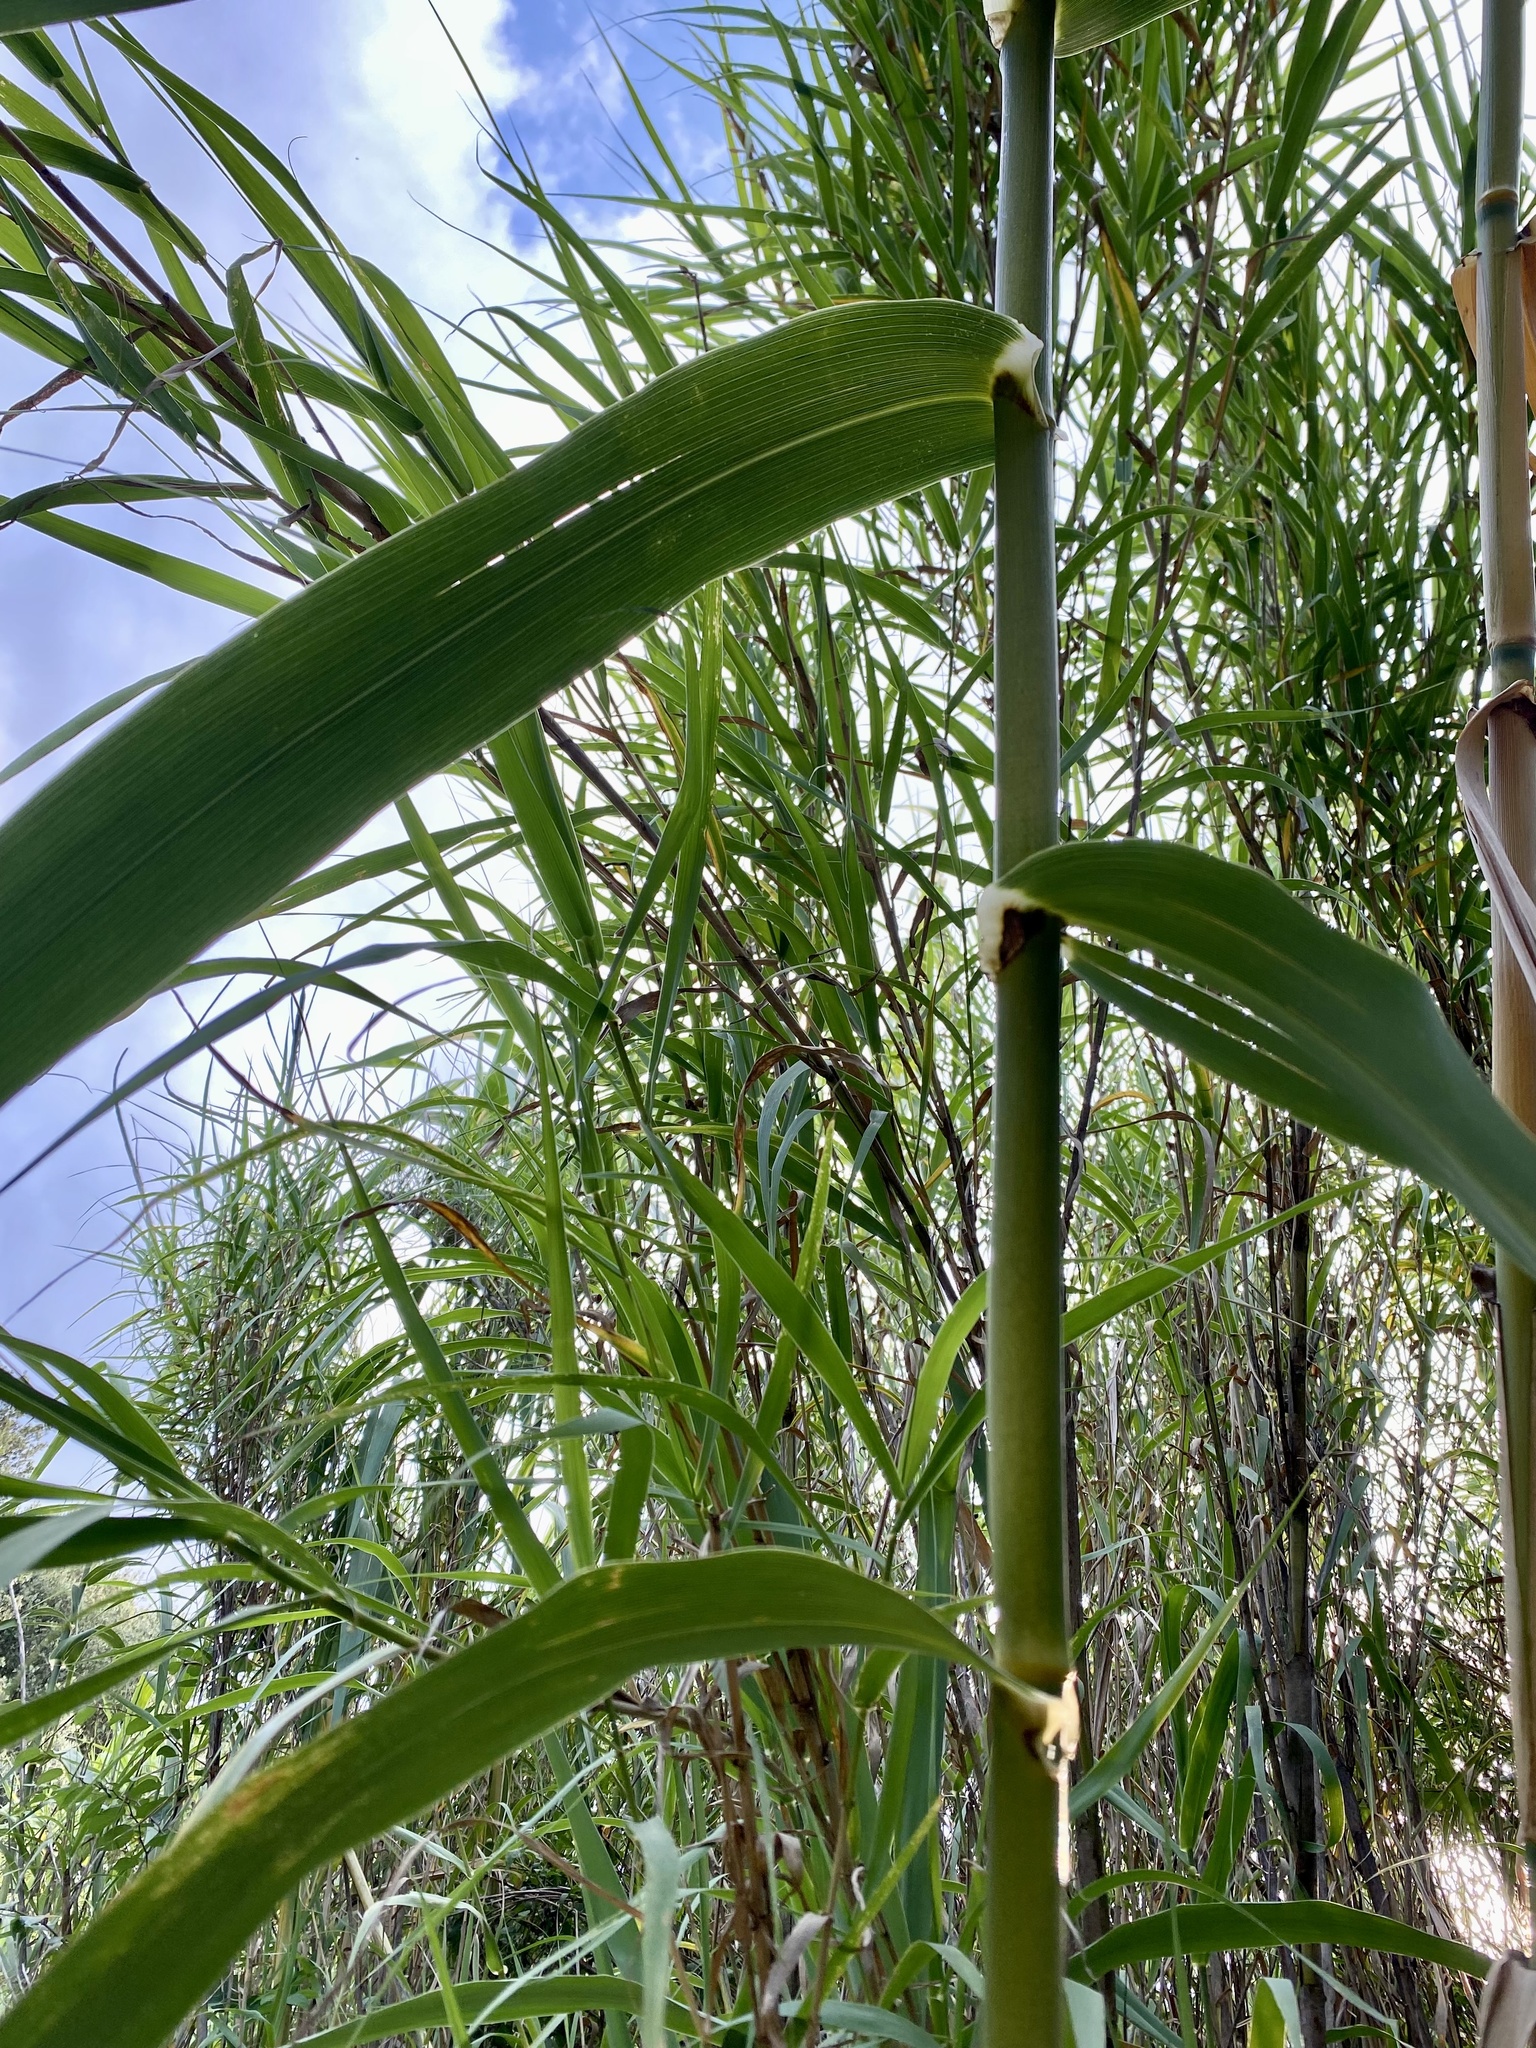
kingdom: Plantae
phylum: Tracheophyta
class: Liliopsida
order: Poales
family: Poaceae
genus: Arundo
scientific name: Arundo donax
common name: Giant reed
